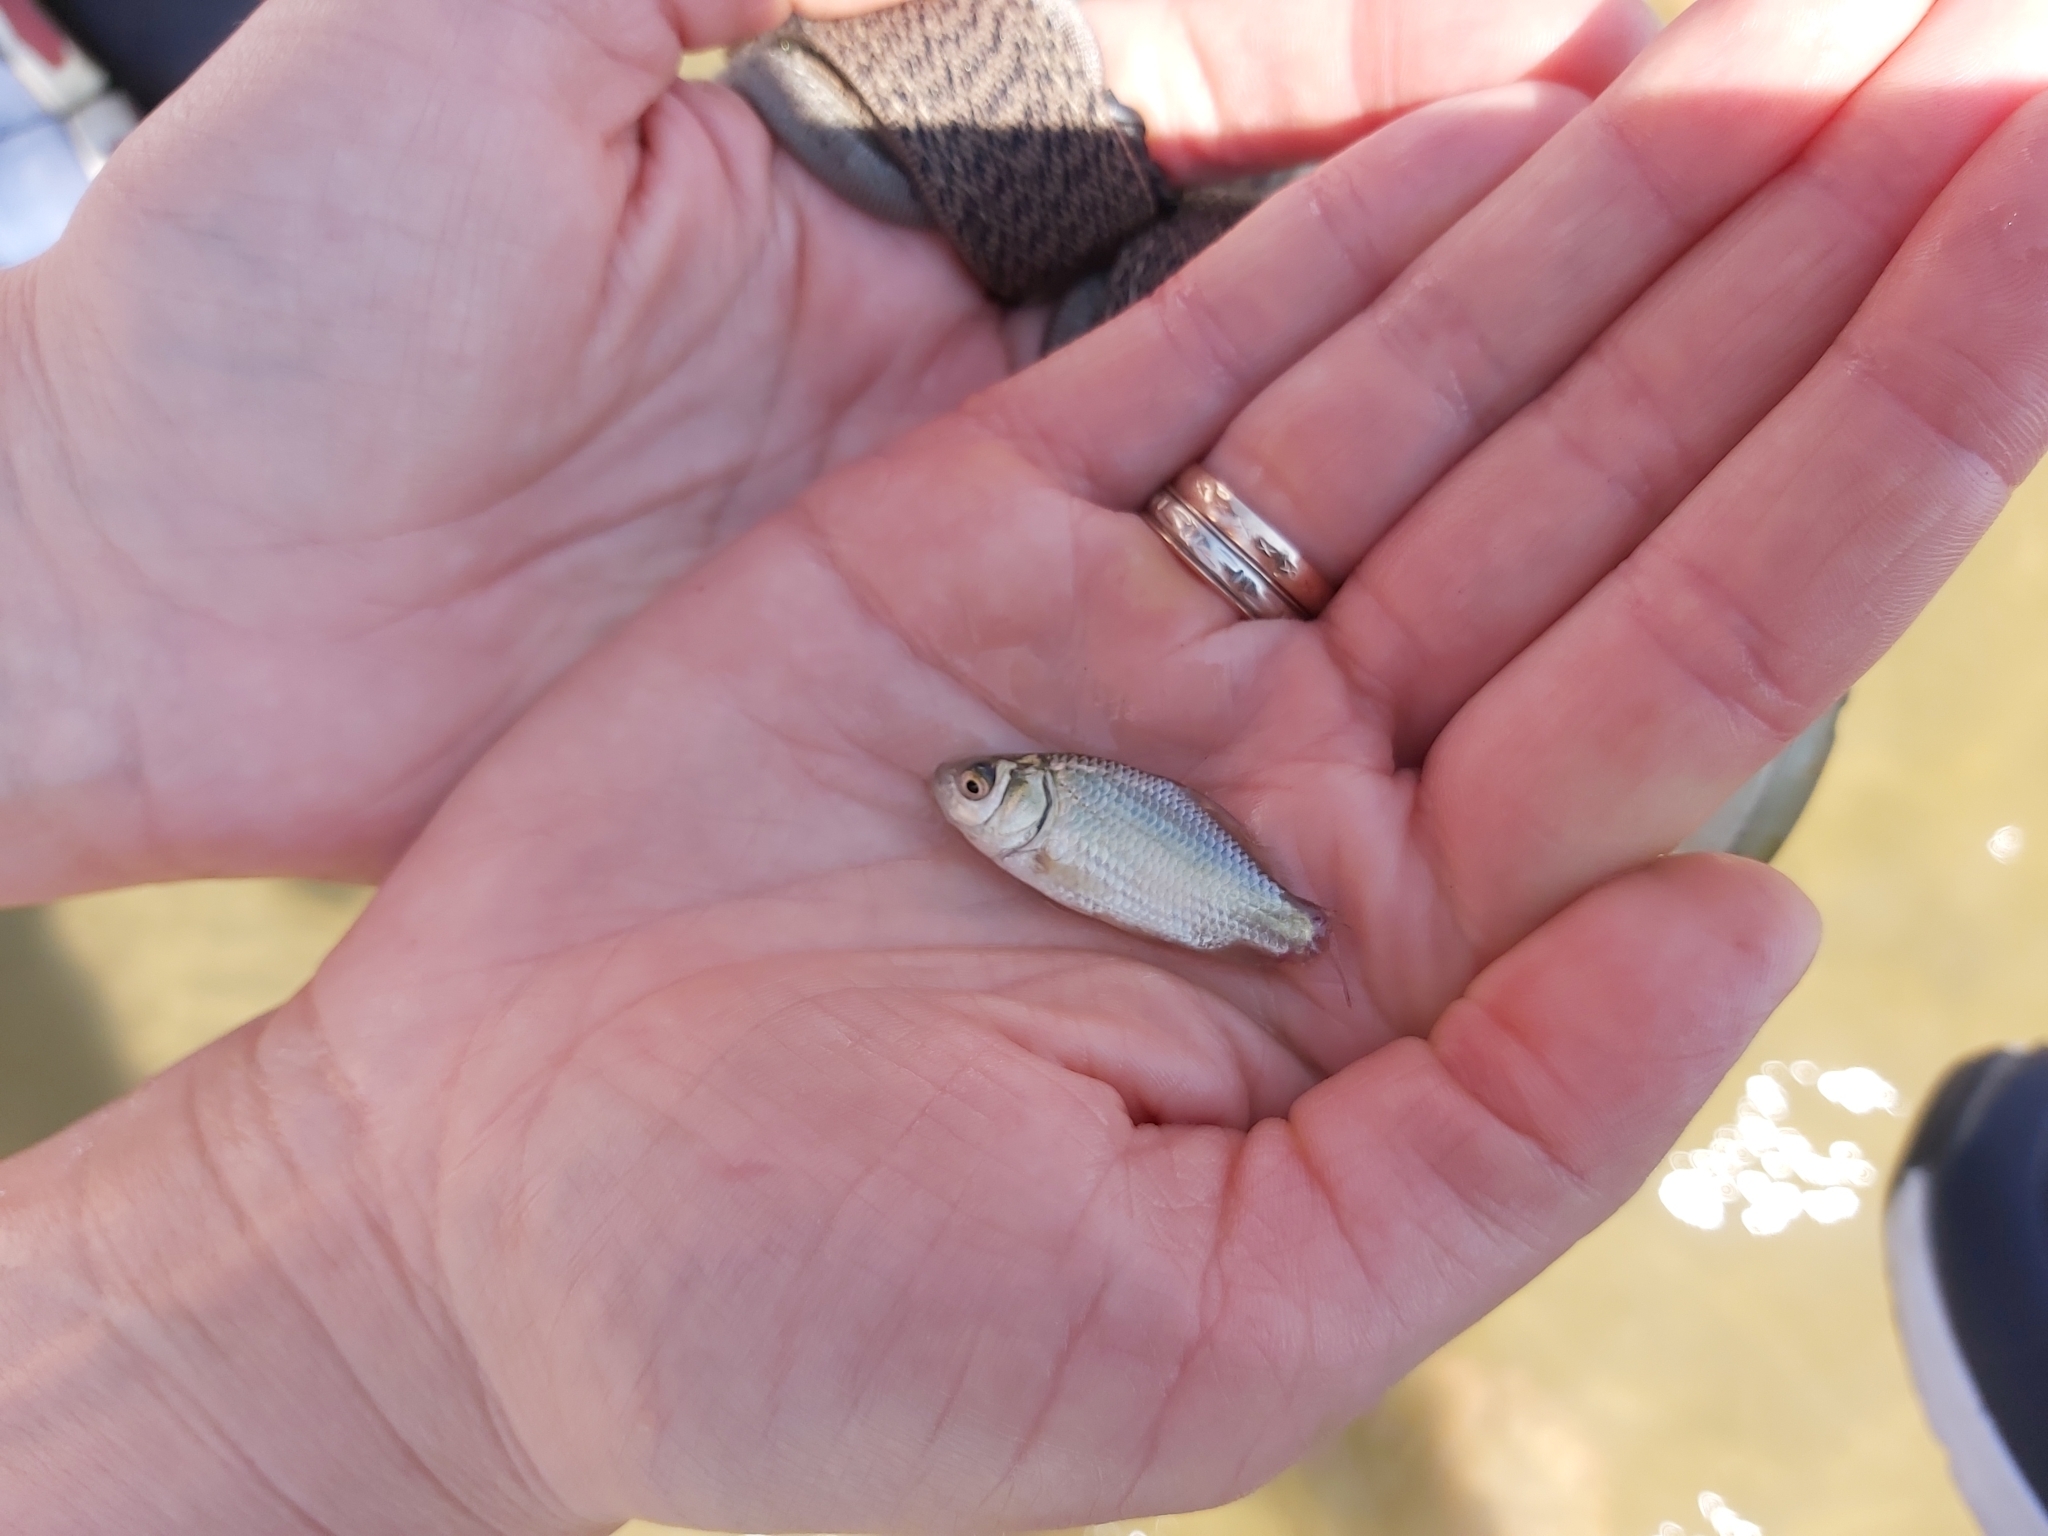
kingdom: Animalia
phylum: Chordata
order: Cypriniformes
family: Cyprinidae
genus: Carassius
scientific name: Carassius gibelio
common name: Prussian carp
